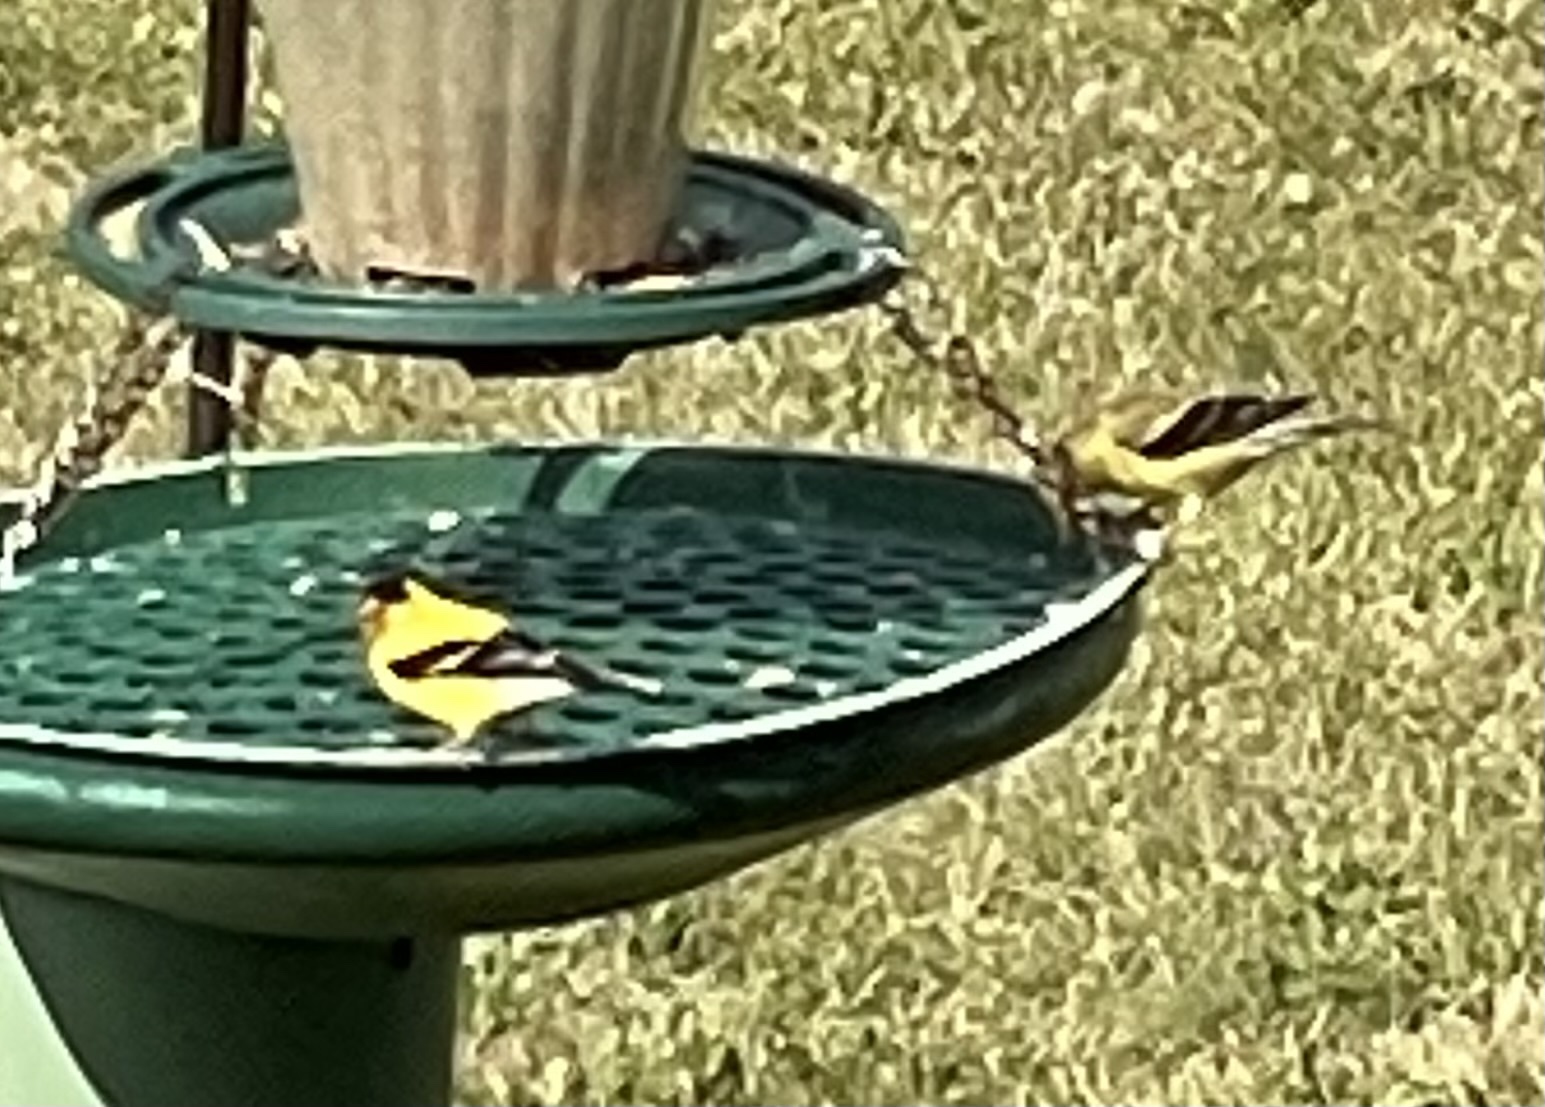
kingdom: Animalia
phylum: Chordata
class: Aves
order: Passeriformes
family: Fringillidae
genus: Spinus
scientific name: Spinus tristis
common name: American goldfinch
